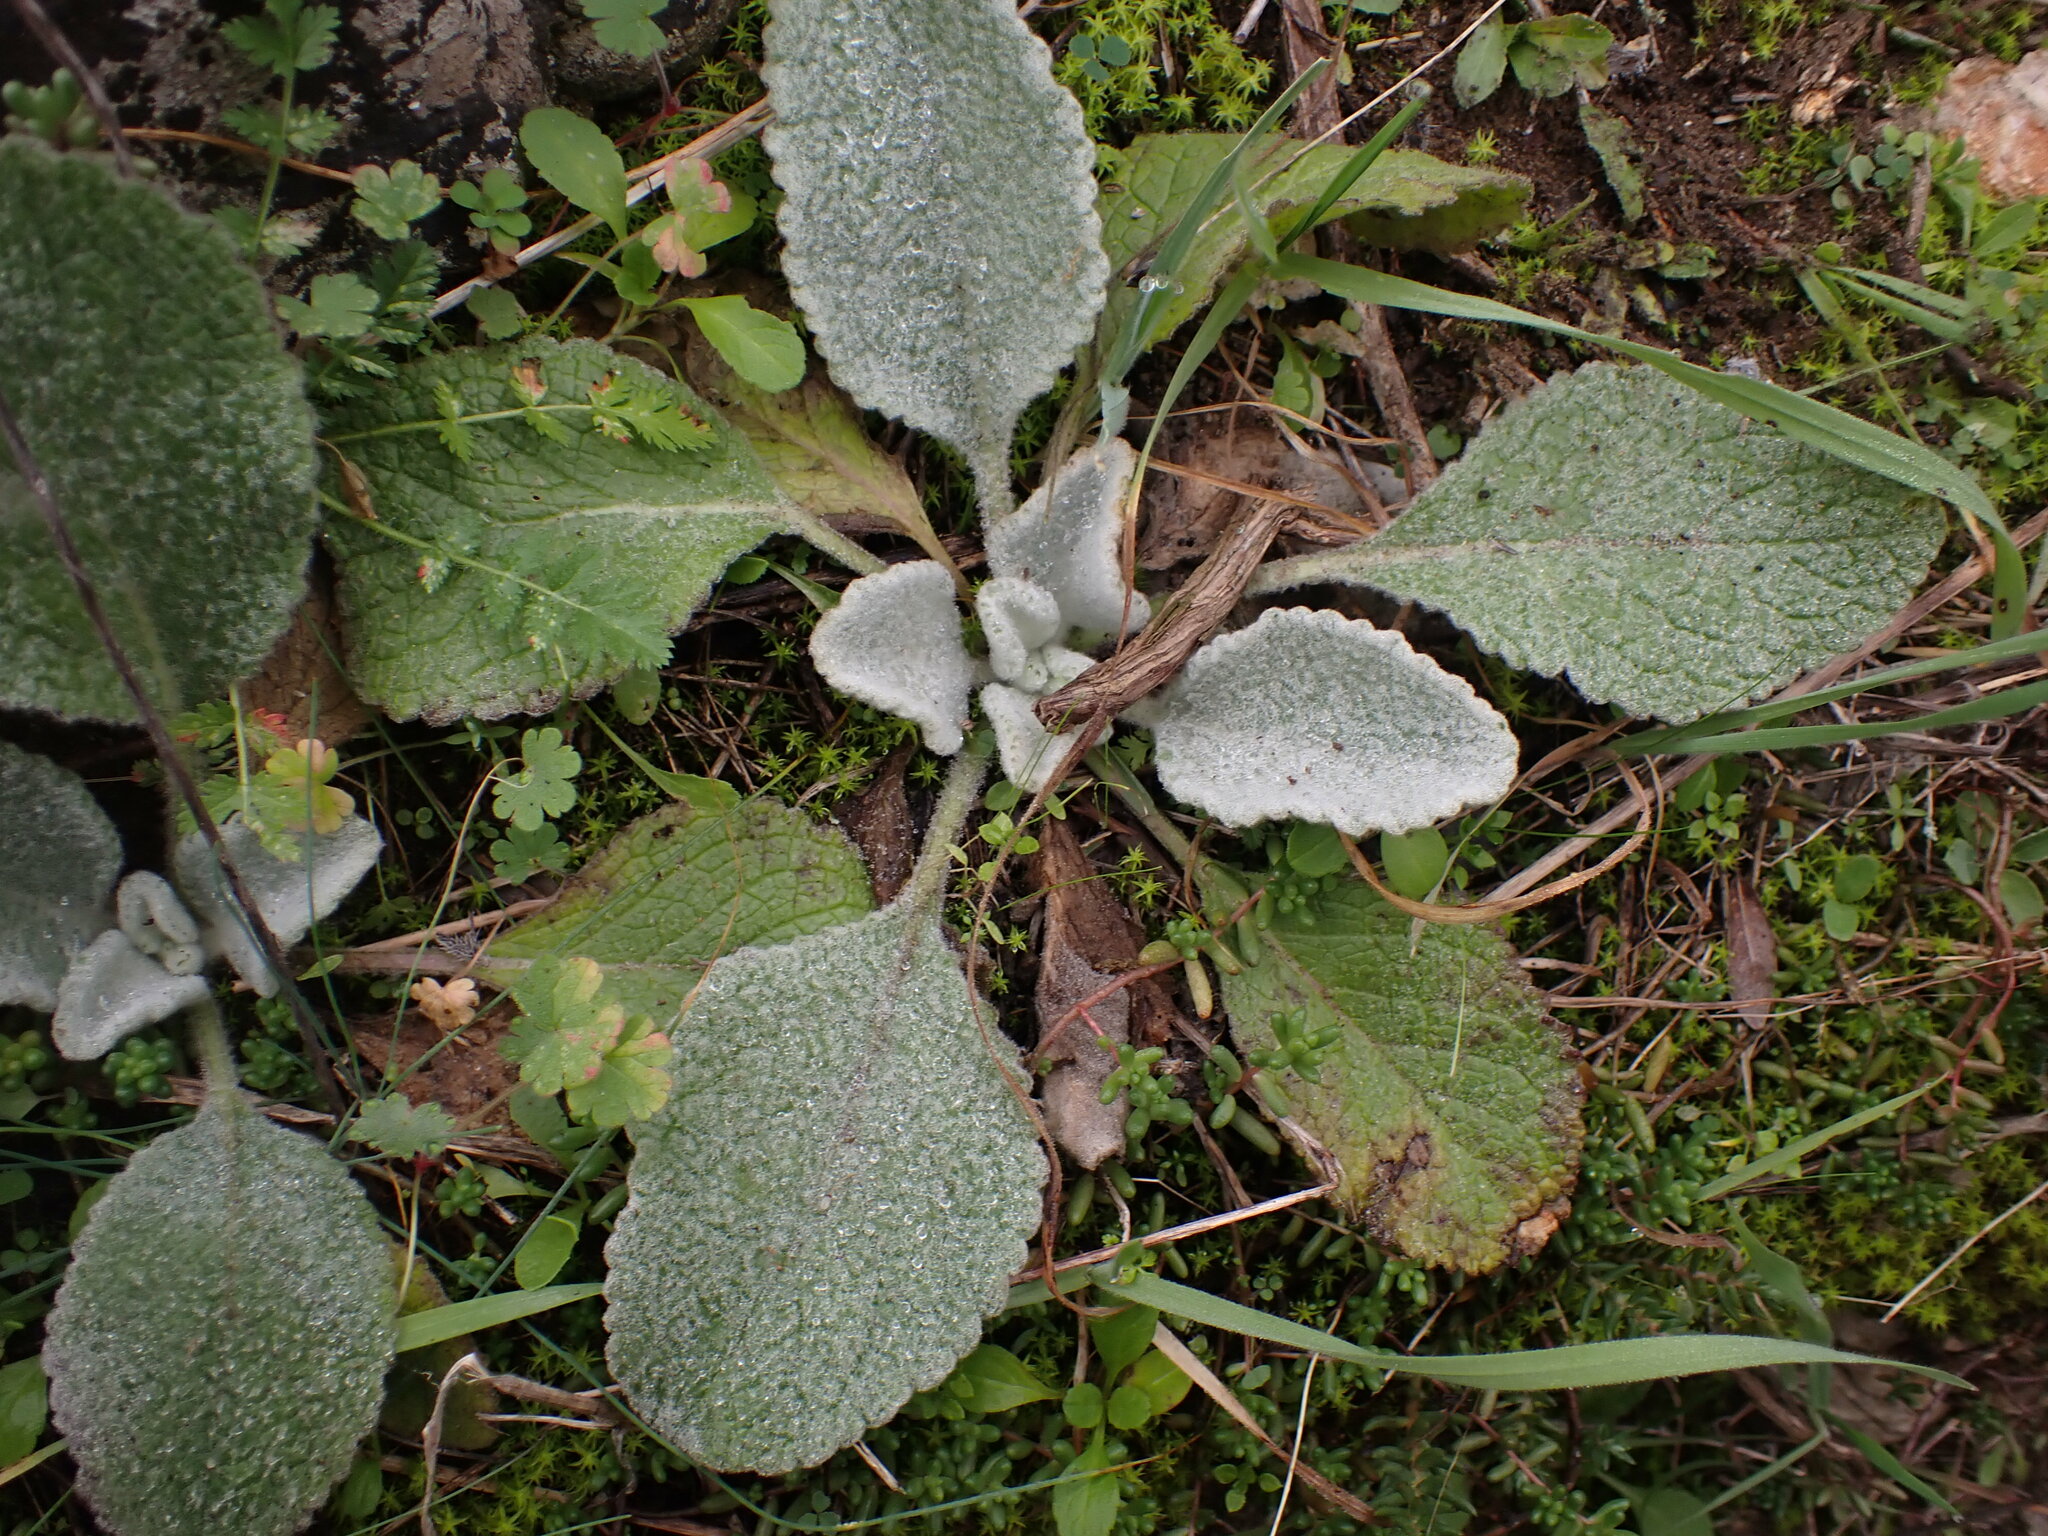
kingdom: Plantae
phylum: Tracheophyta
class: Magnoliopsida
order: Lamiales
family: Scrophulariaceae
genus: Verbascum
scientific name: Verbascum boerhavii
